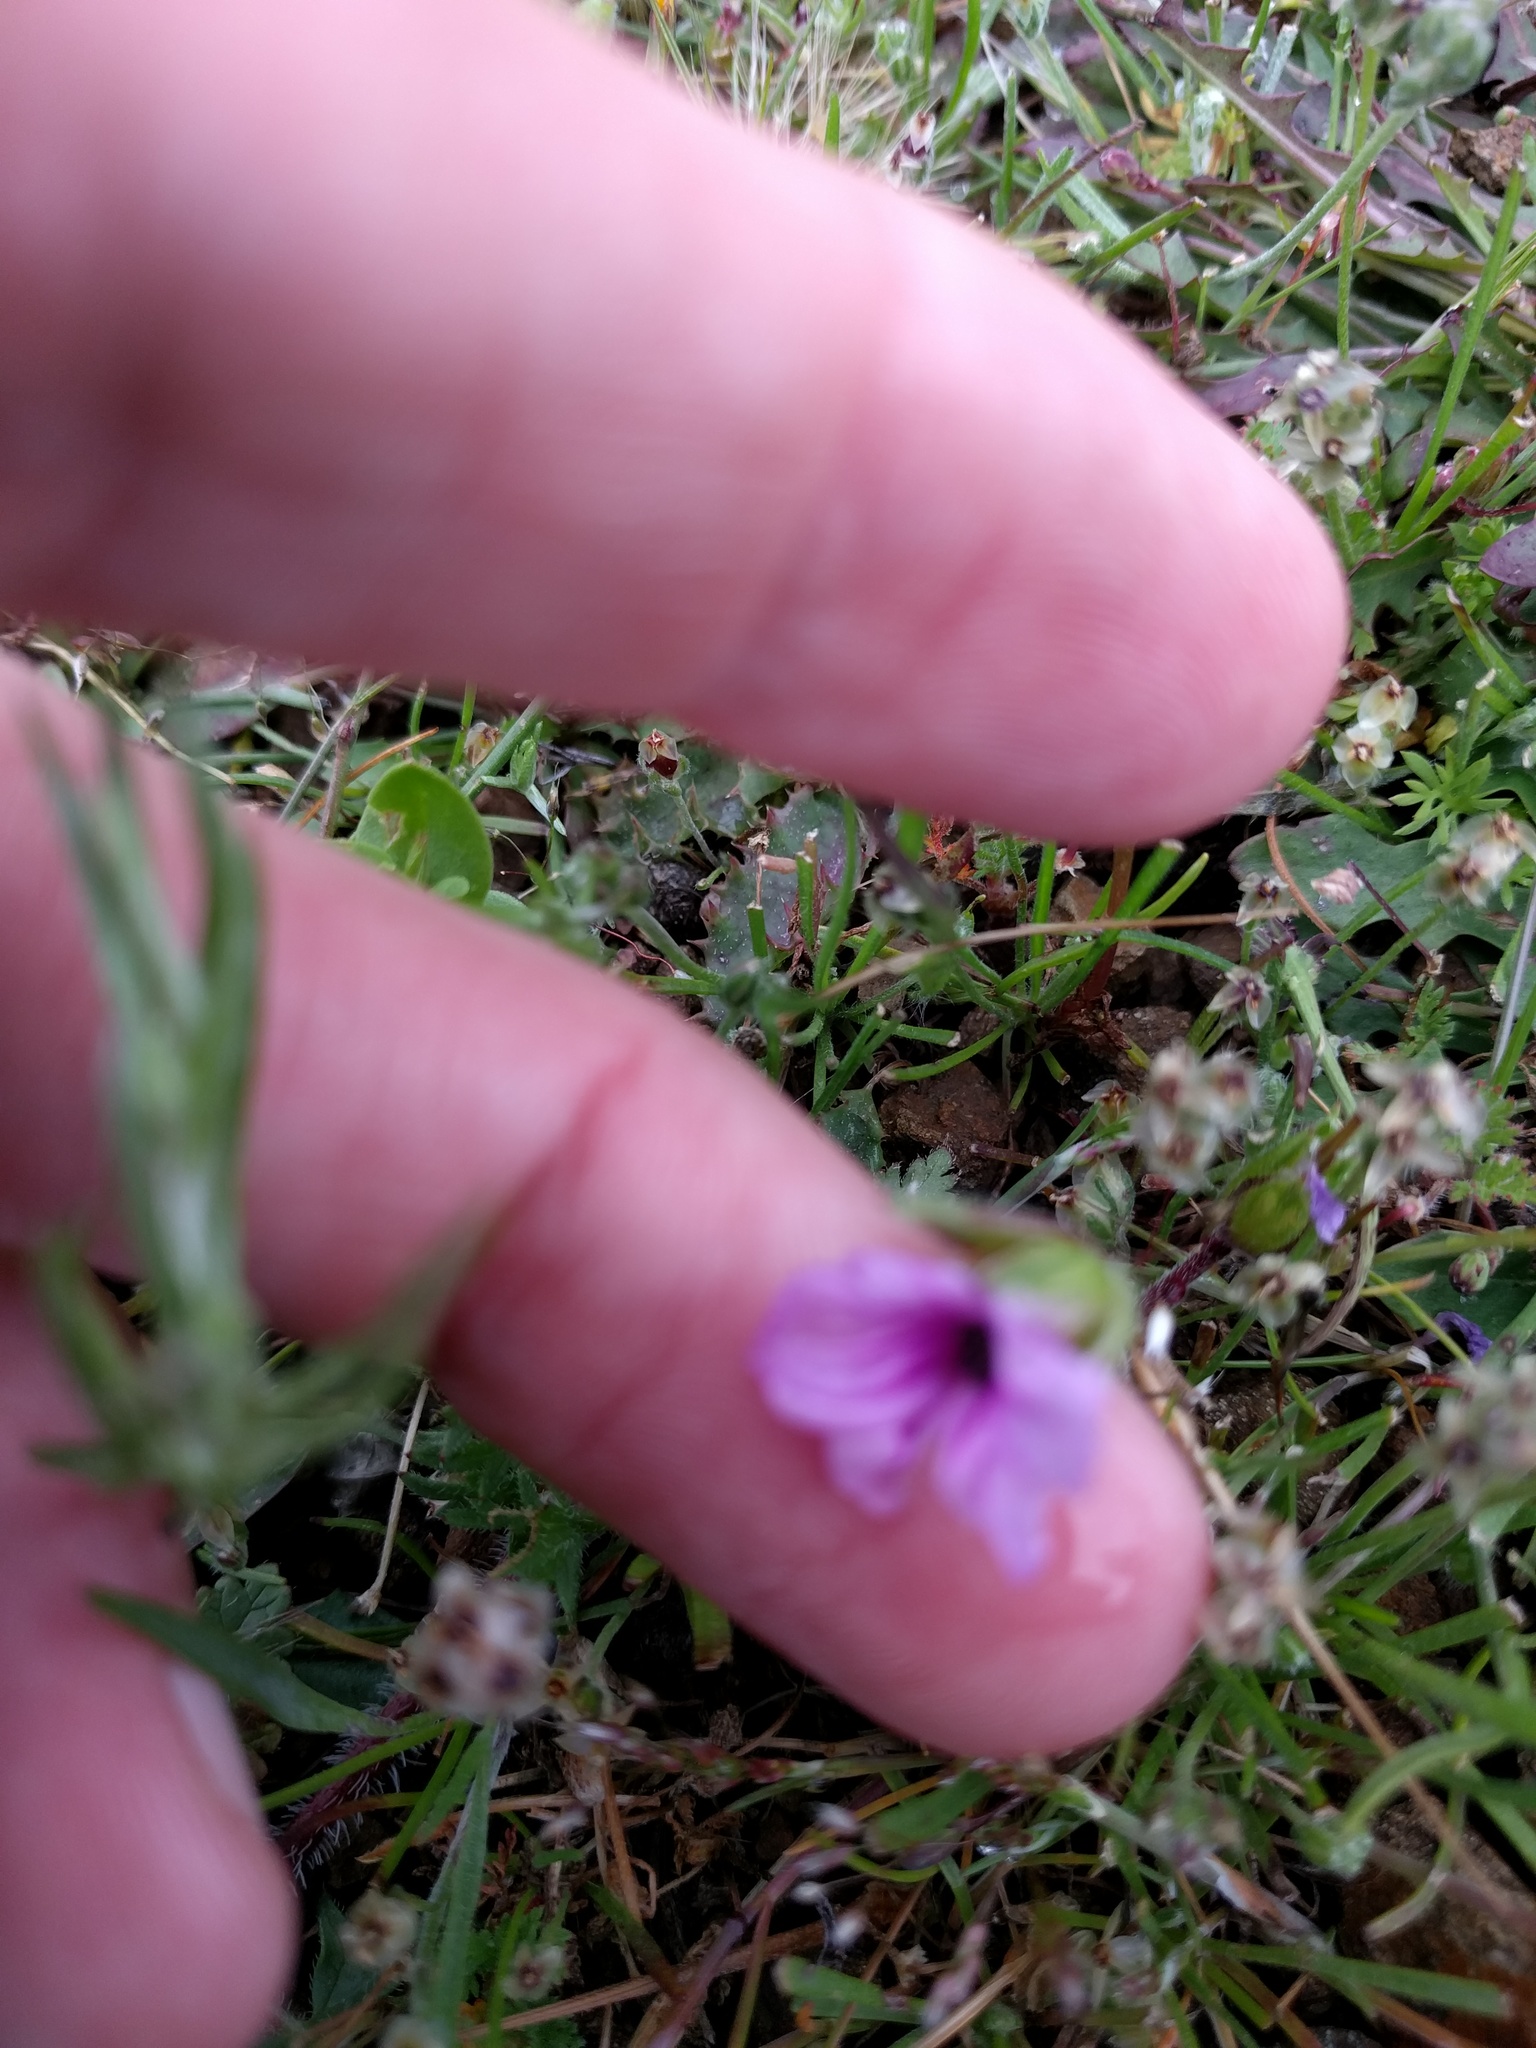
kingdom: Plantae
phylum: Tracheophyta
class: Magnoliopsida
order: Geraniales
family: Geraniaceae
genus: Erodium
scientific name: Erodium botrys
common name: Mediterranean stork's-bill
